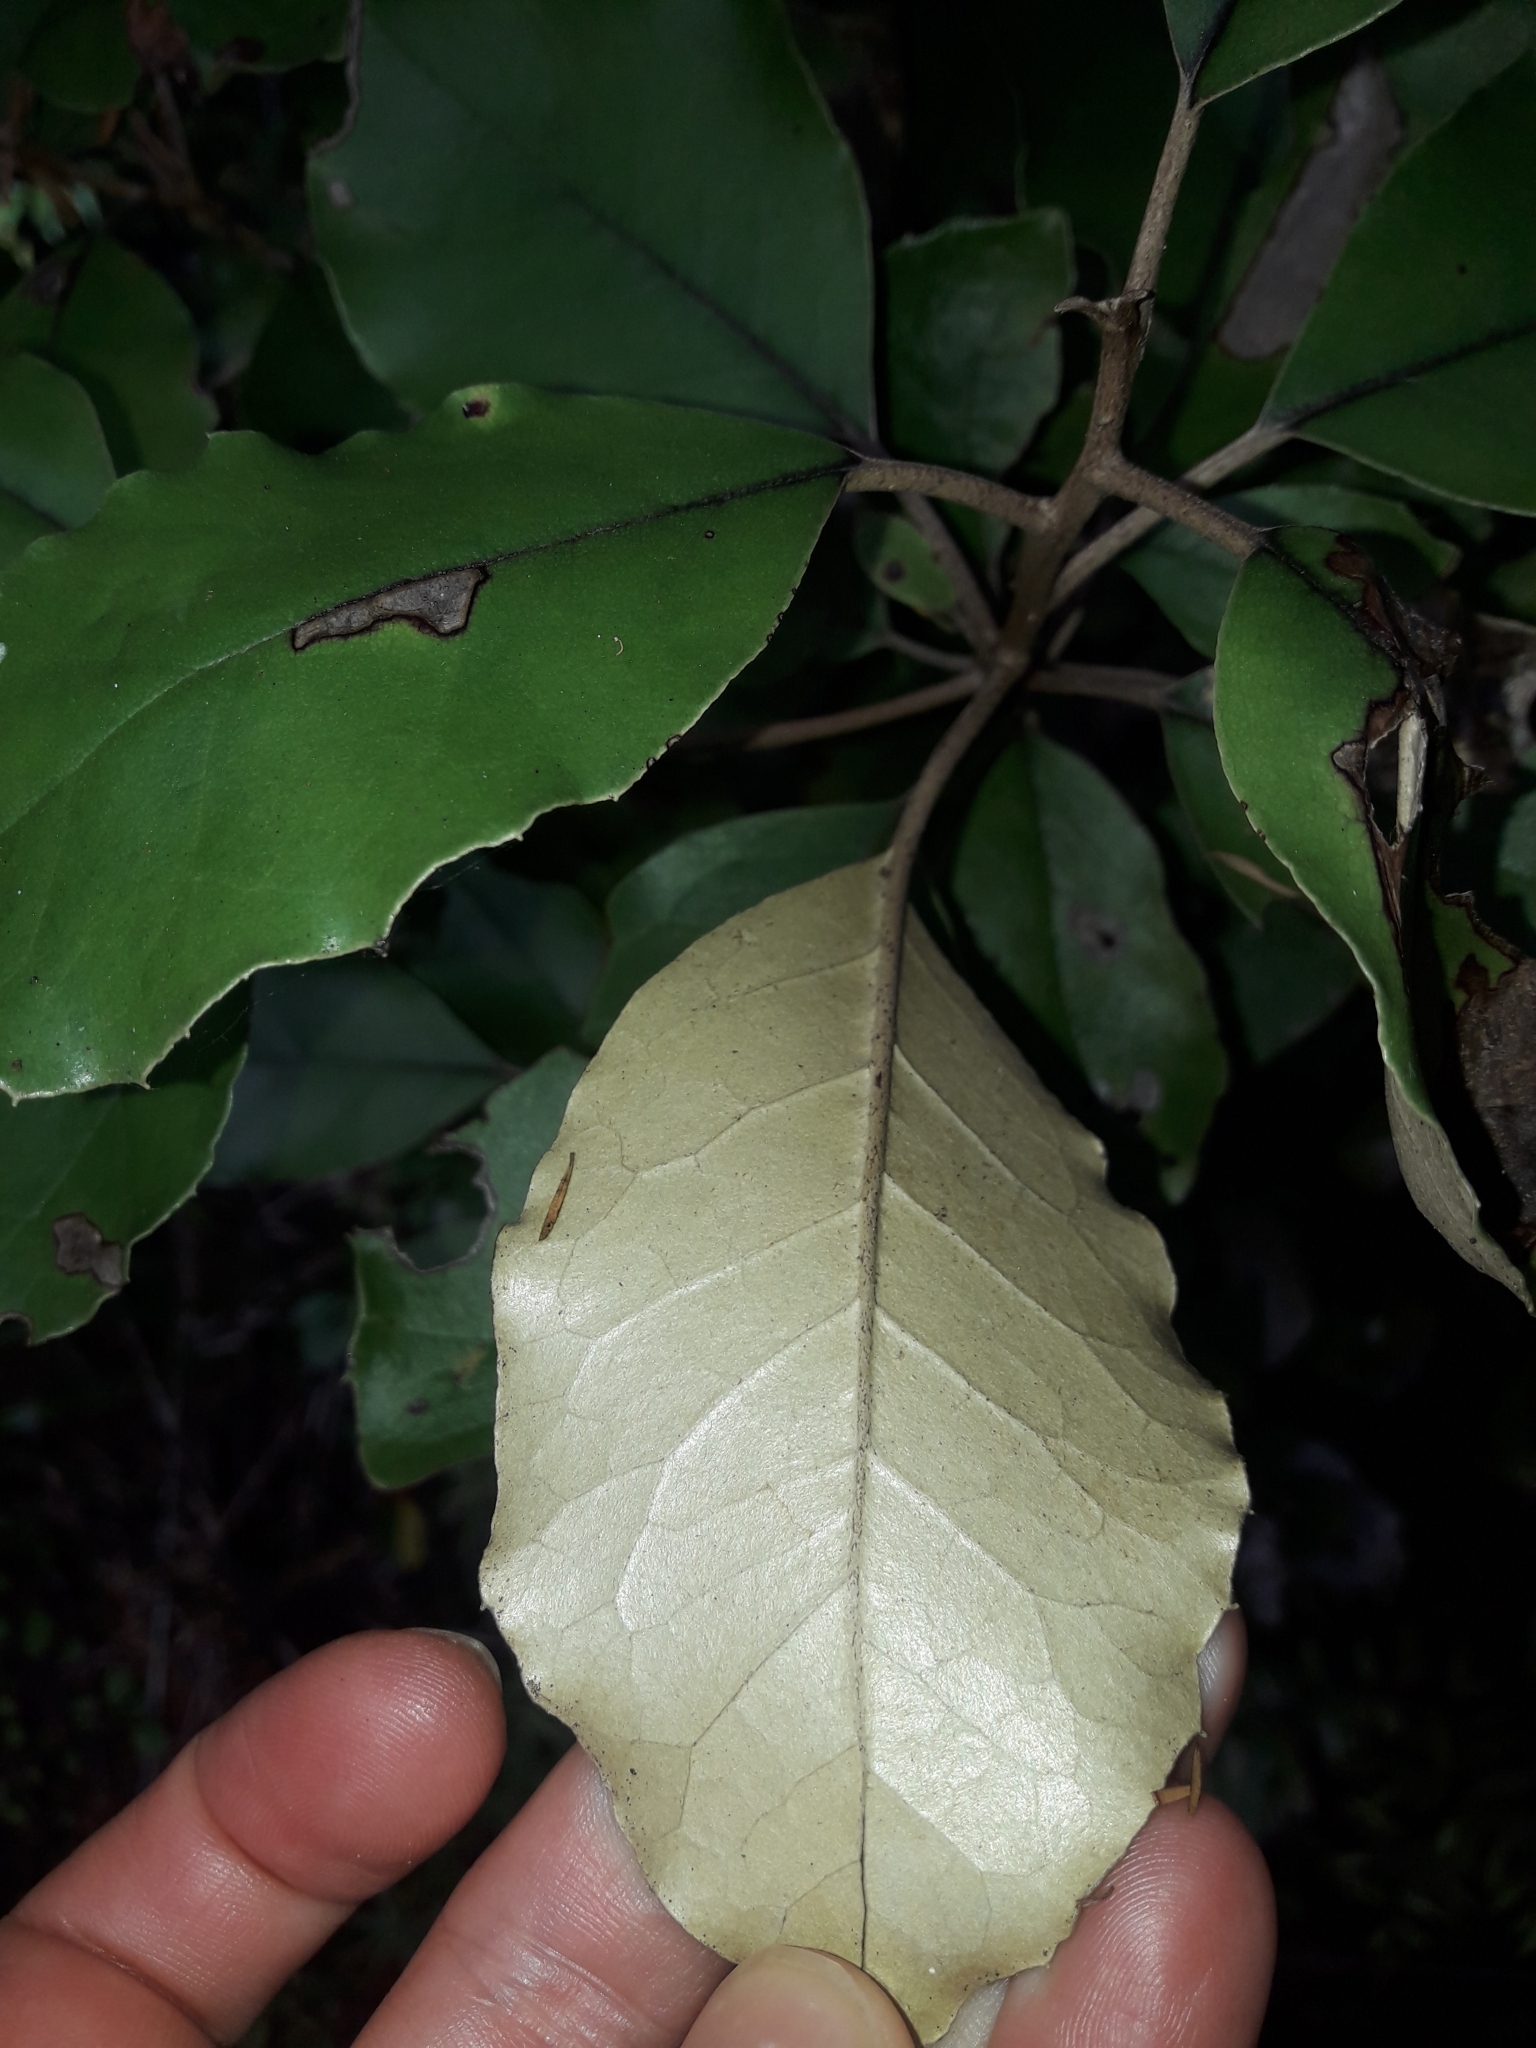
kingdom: Plantae
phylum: Tracheophyta
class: Magnoliopsida
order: Asterales
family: Asteraceae
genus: Olearia
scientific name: Olearia furfuracea
